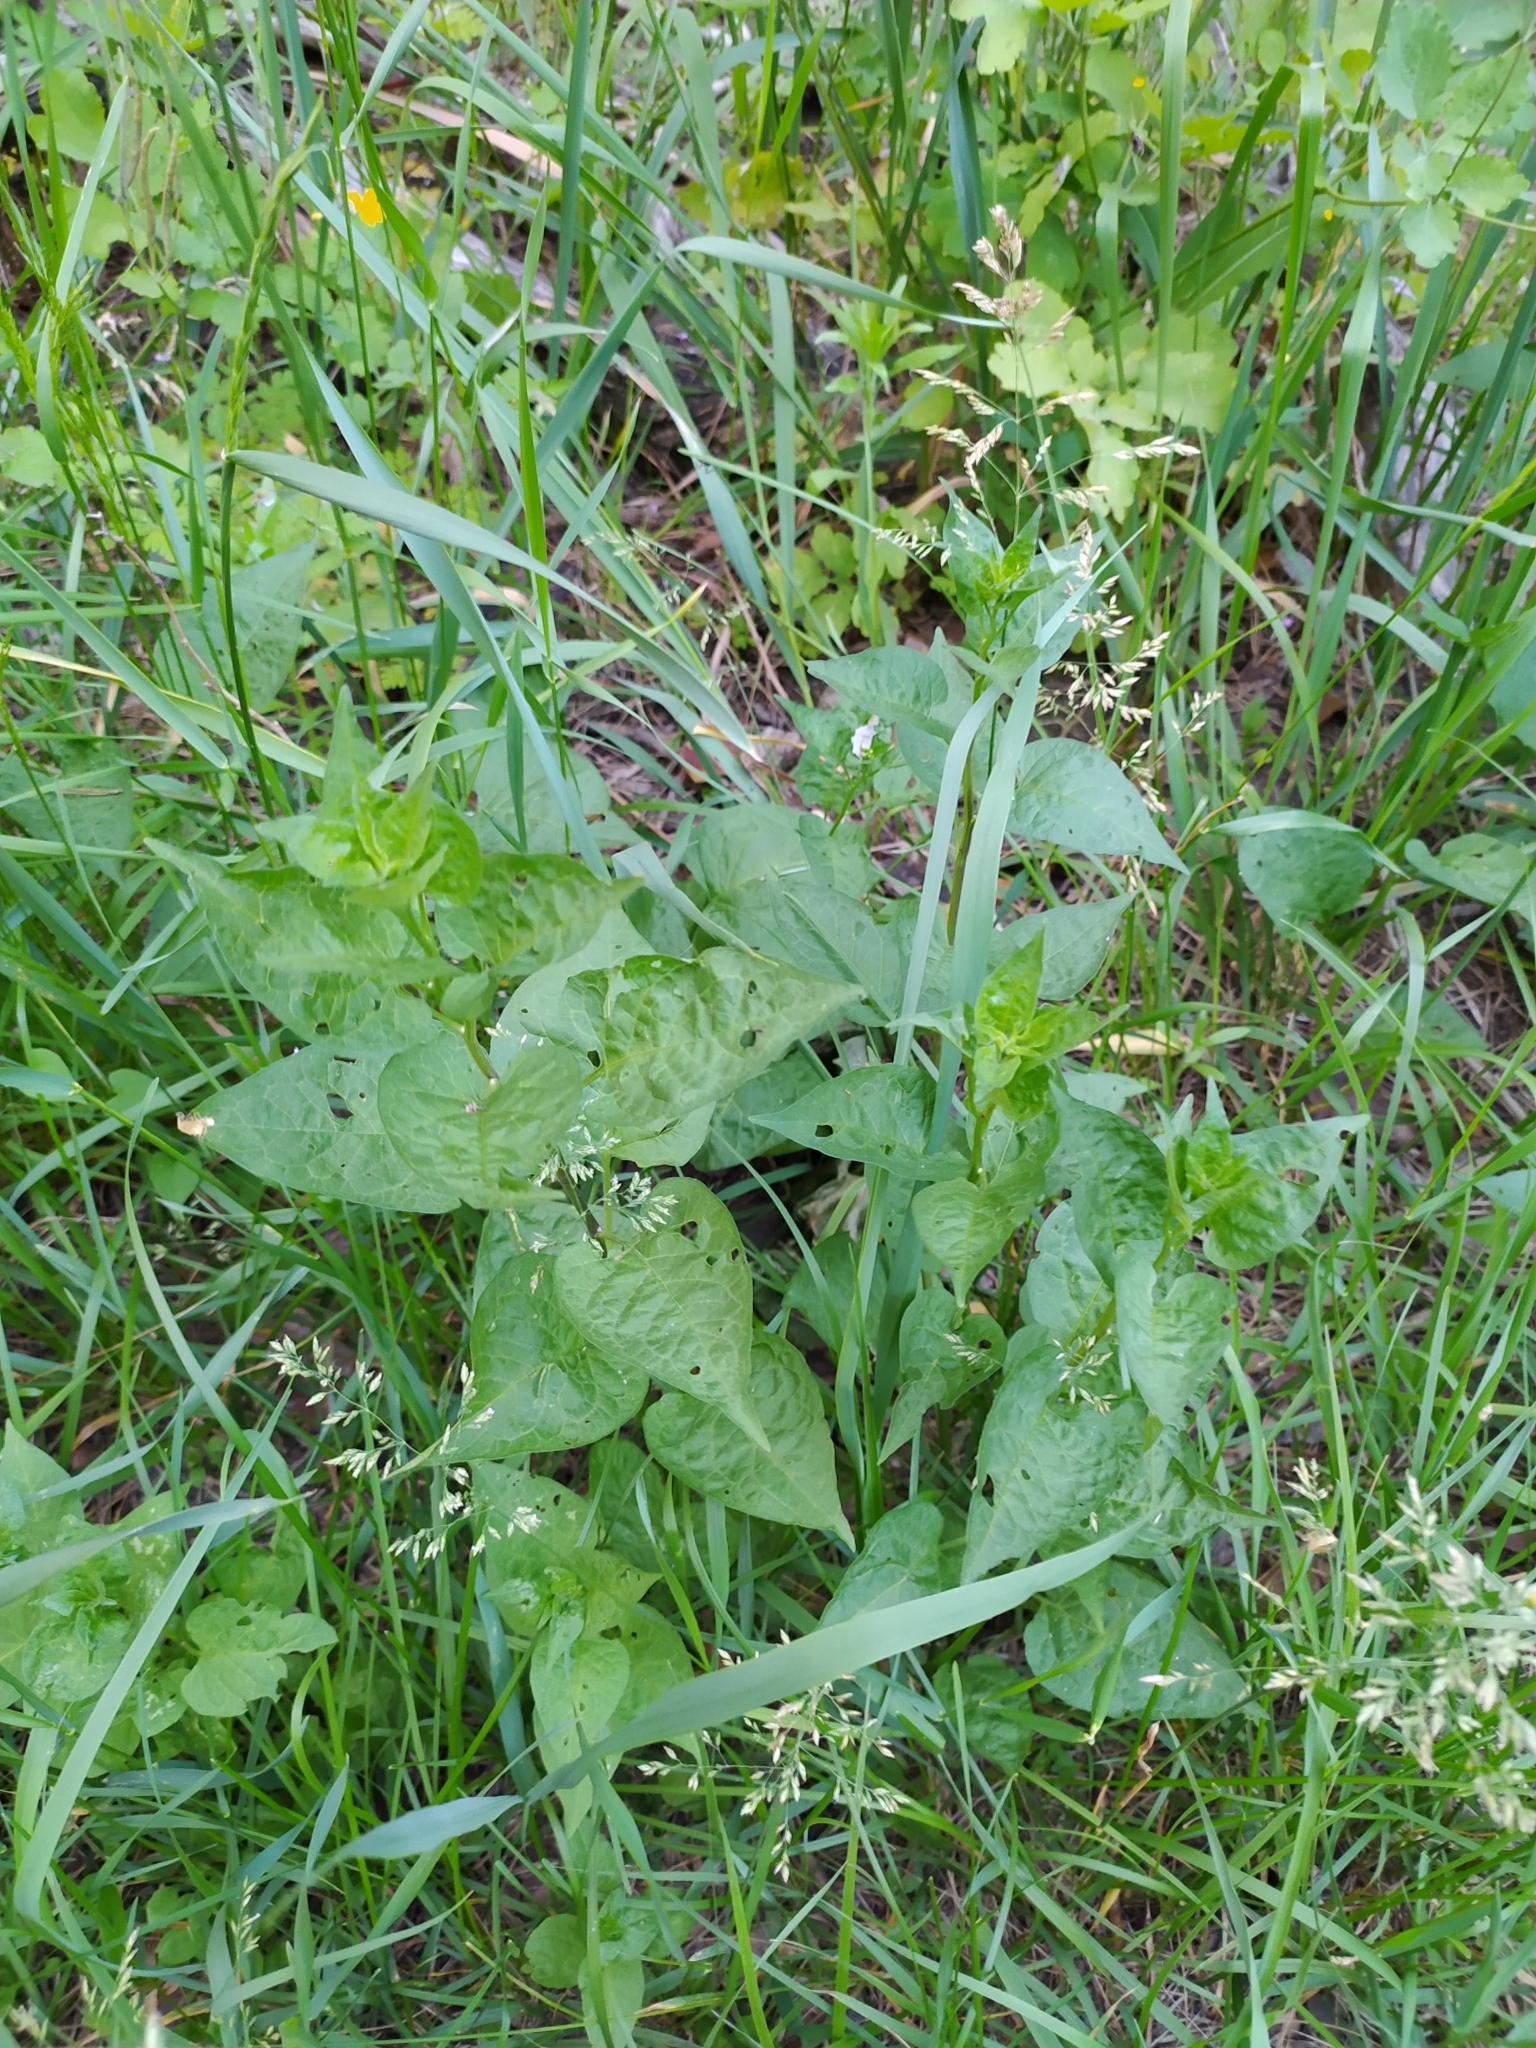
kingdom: Plantae
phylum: Tracheophyta
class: Magnoliopsida
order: Solanales
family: Solanaceae
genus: Solanum
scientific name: Solanum dulcamara
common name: Climbing nightshade
